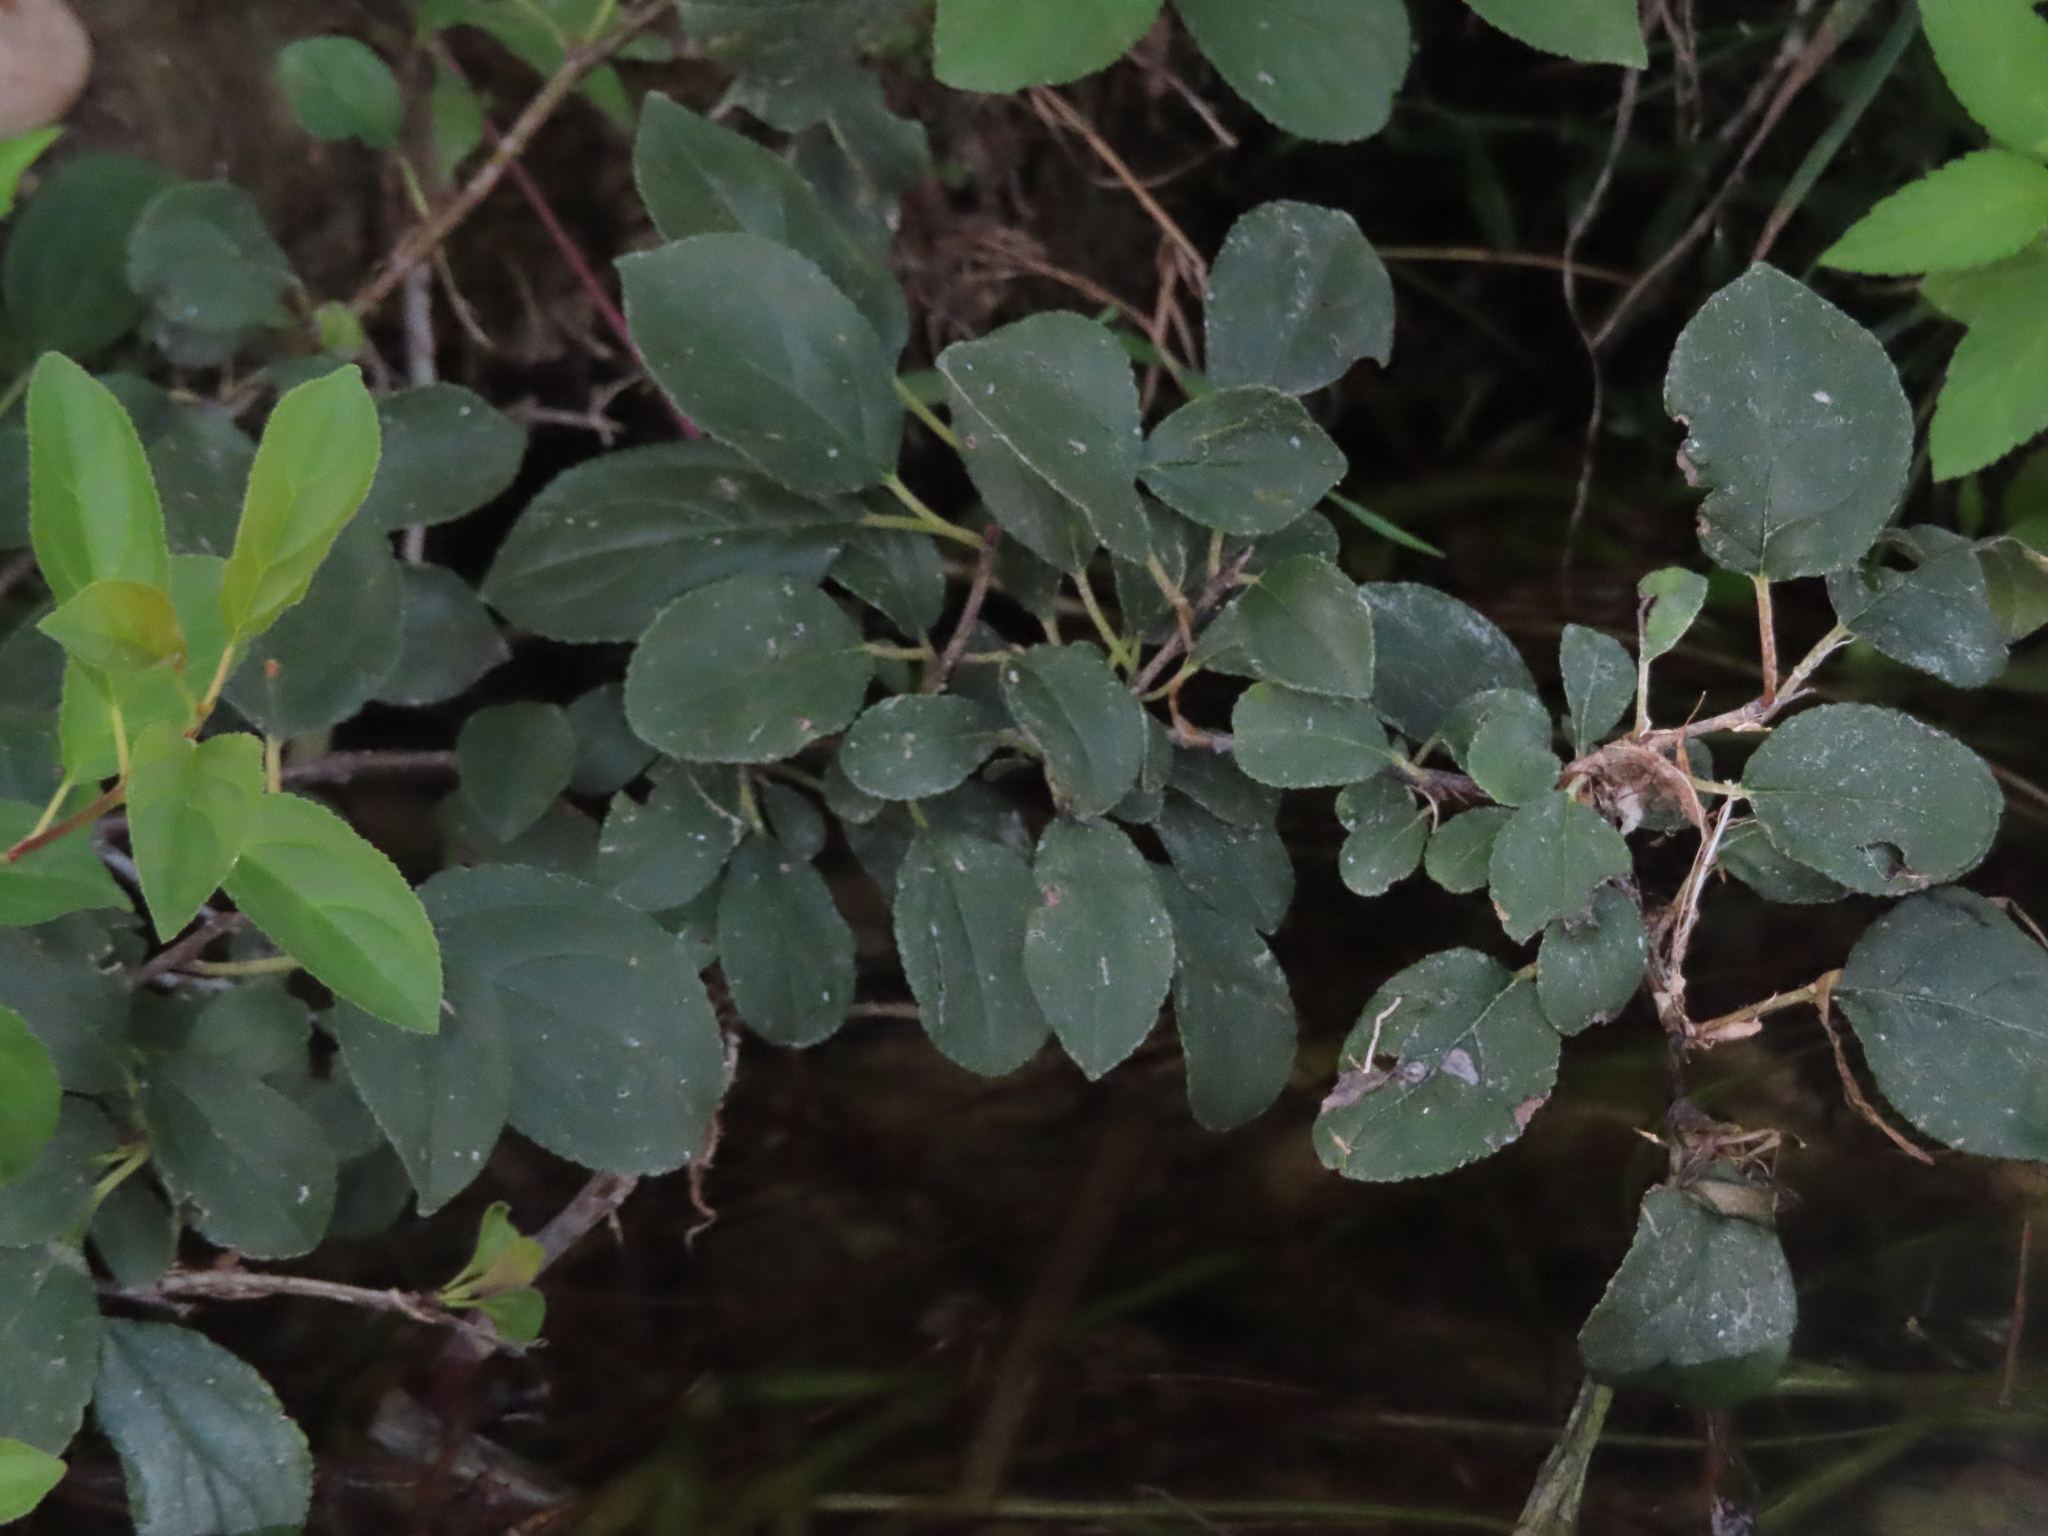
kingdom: Plantae
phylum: Tracheophyta
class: Magnoliopsida
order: Rosales
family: Rhamnaceae
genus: Rhamnus
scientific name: Rhamnus cathartica
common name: Common buckthorn
